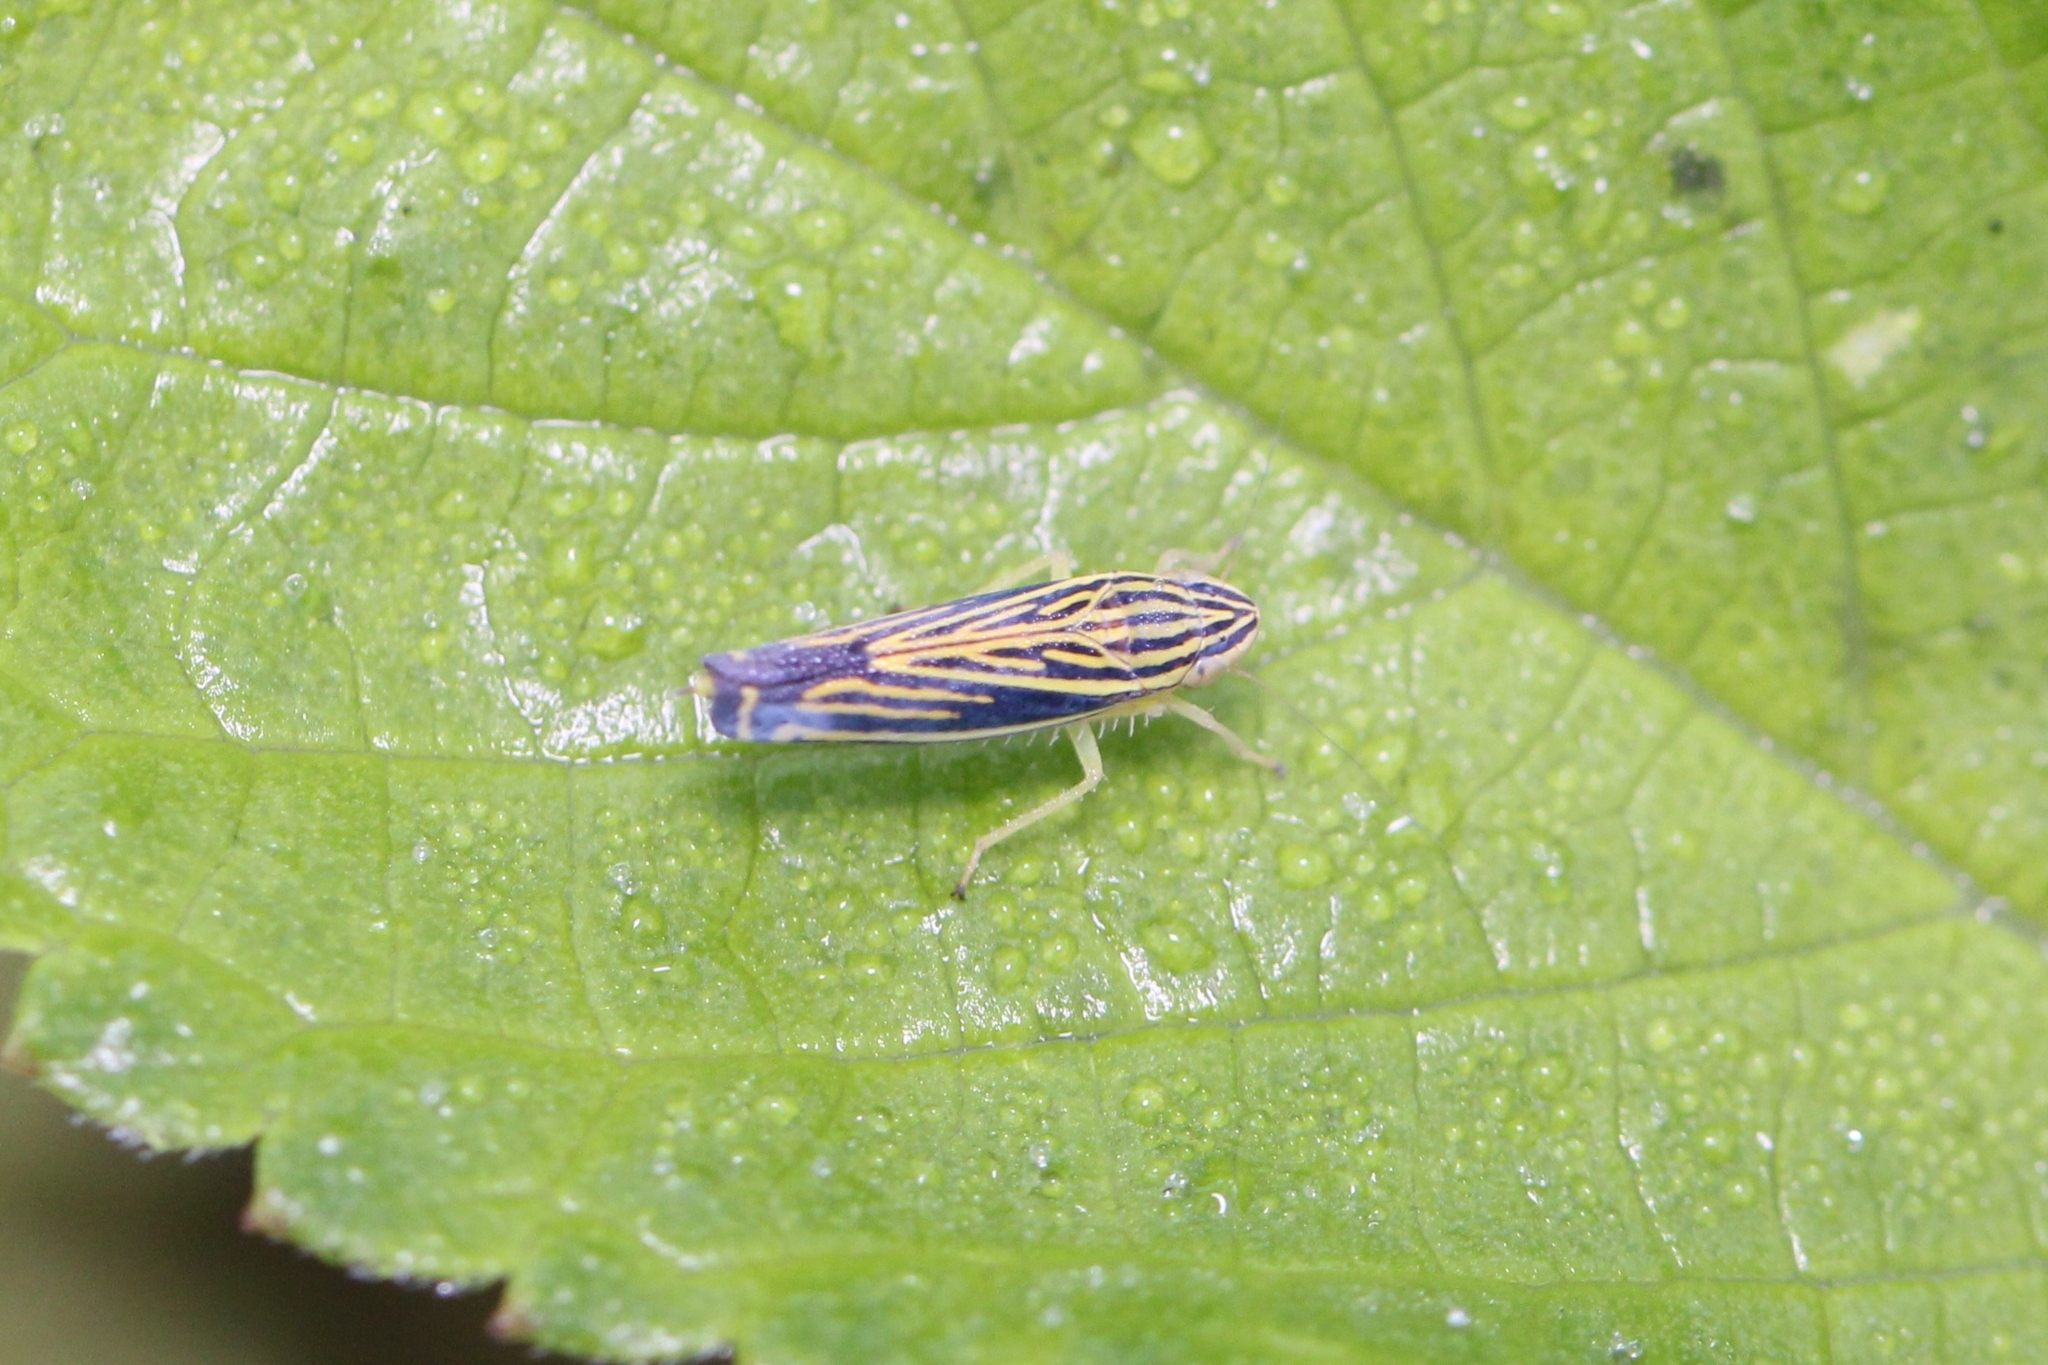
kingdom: Animalia
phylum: Arthropoda
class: Insecta
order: Hemiptera
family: Cicadellidae
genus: Sibovia
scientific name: Sibovia occatoria
